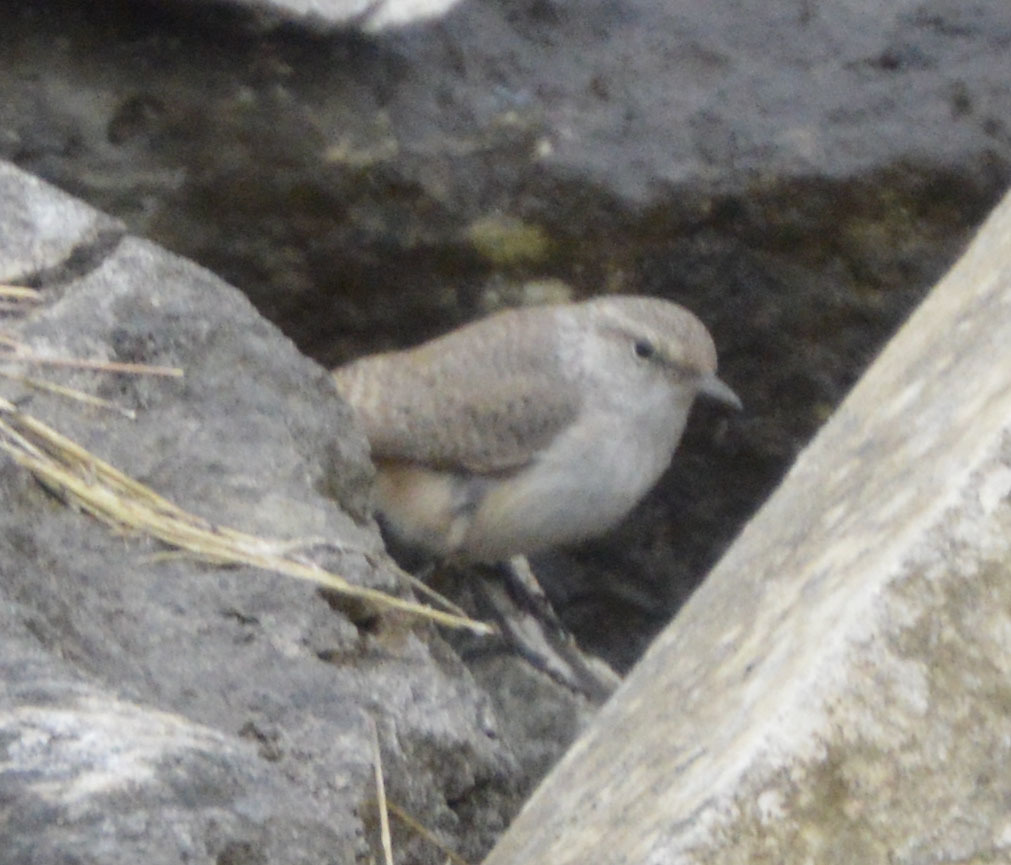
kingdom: Animalia
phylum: Chordata
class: Aves
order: Passeriformes
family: Troglodytidae
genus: Salpinctes
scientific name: Salpinctes obsoletus
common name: Rock wren
